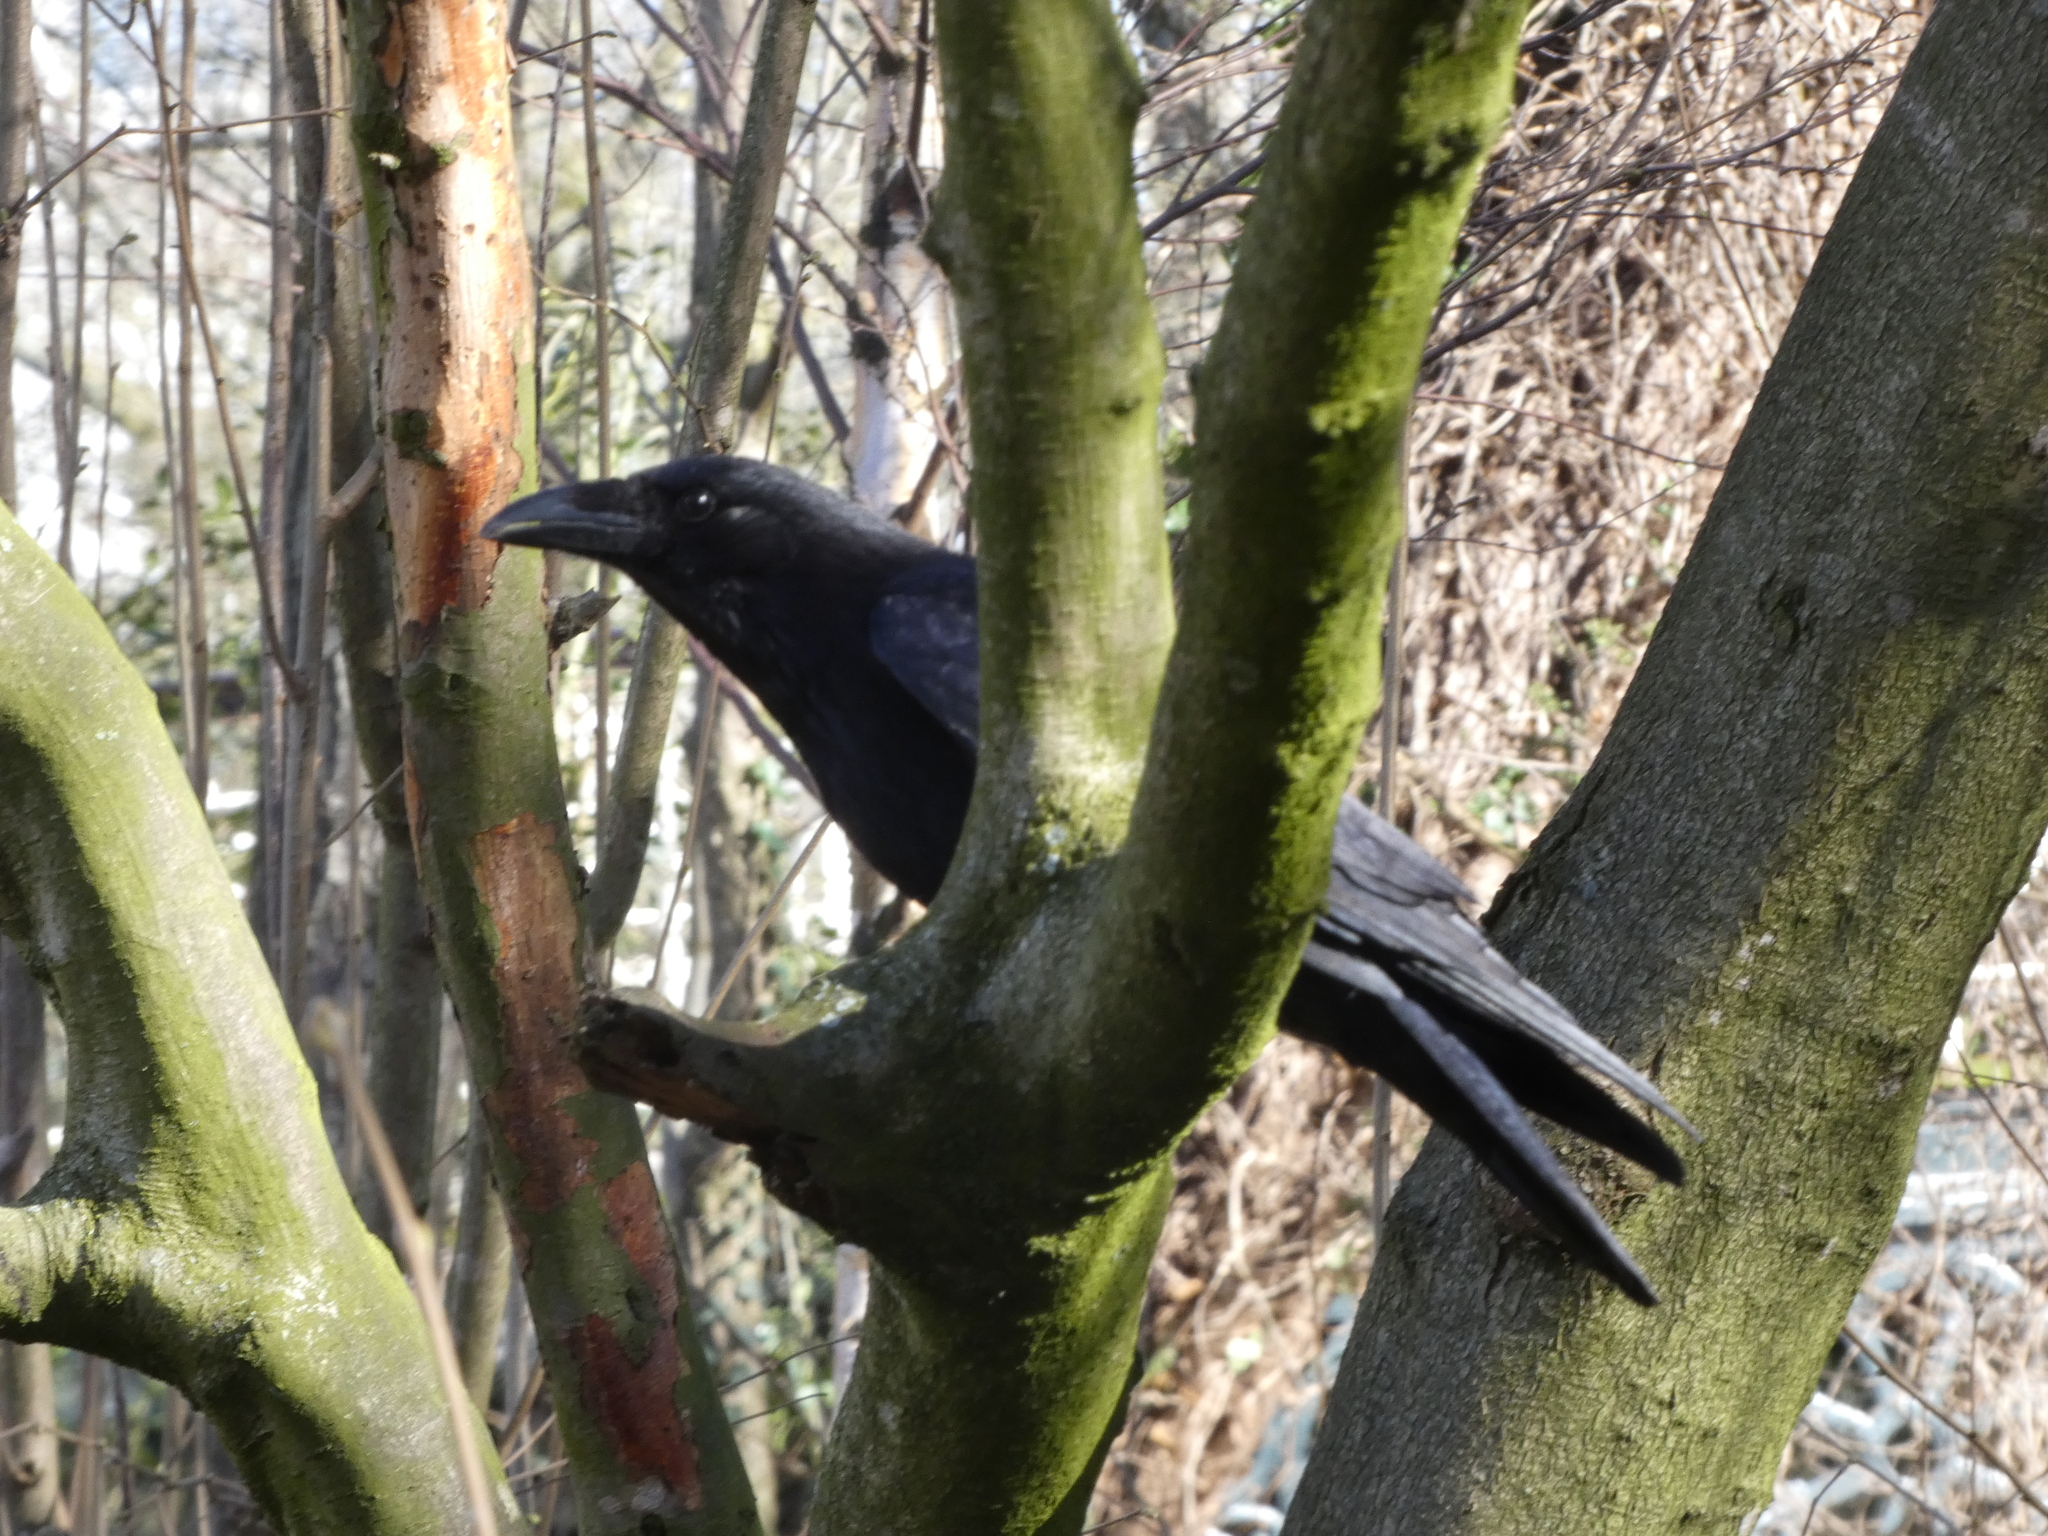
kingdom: Animalia
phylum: Chordata
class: Aves
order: Passeriformes
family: Corvidae
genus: Corvus
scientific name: Corvus corone
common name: Carrion crow
